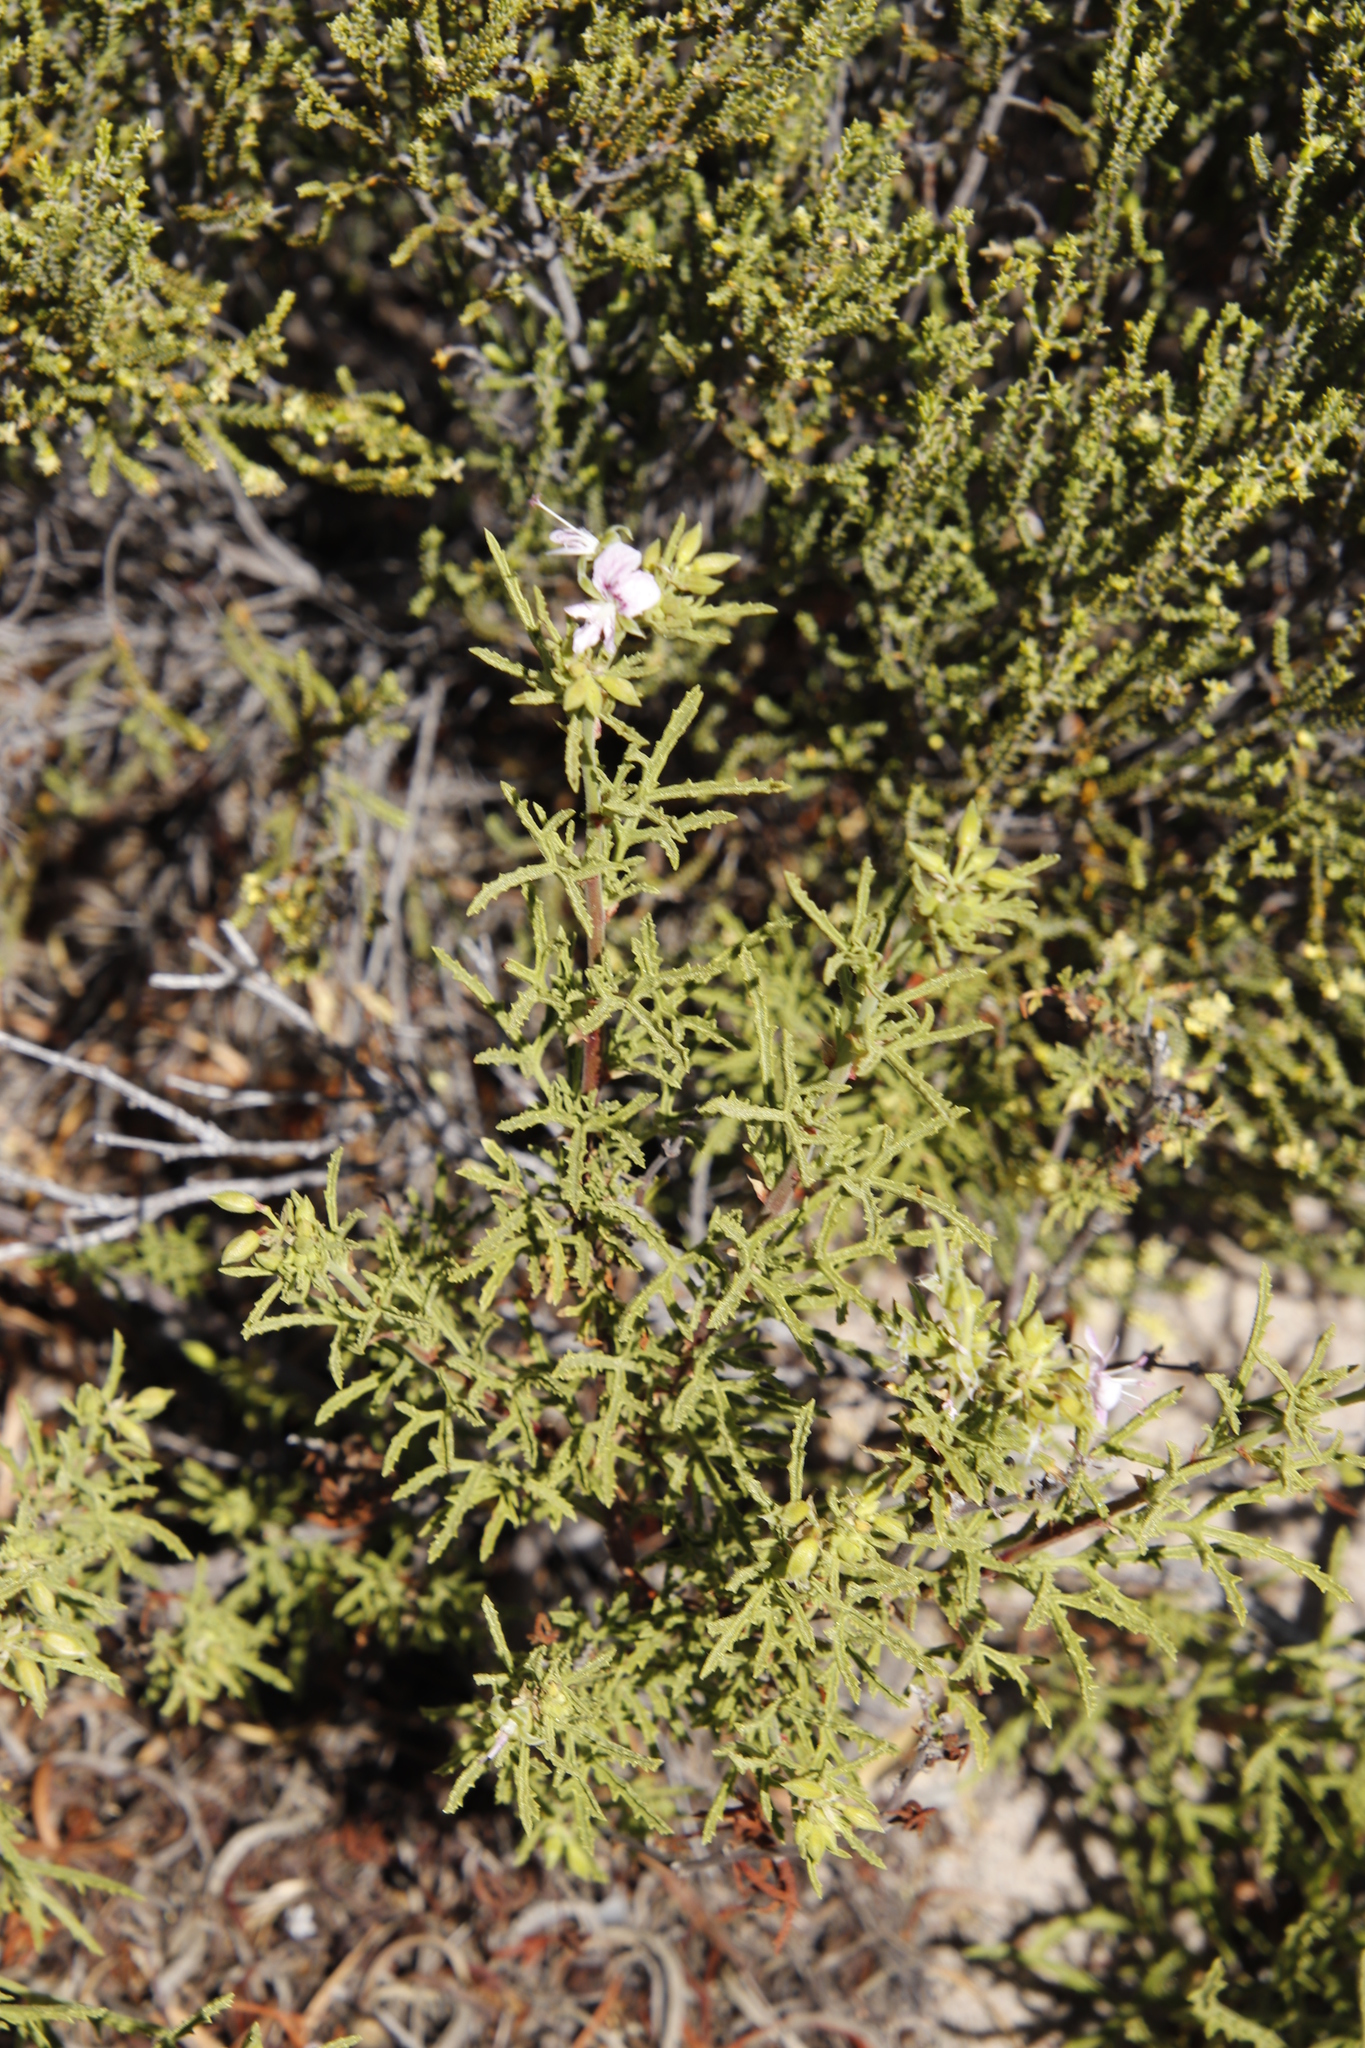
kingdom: Plantae
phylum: Tracheophyta
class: Magnoliopsida
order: Geraniales
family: Geraniaceae
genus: Pelargonium
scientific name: Pelargonium scabrum
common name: Apricot geranium
